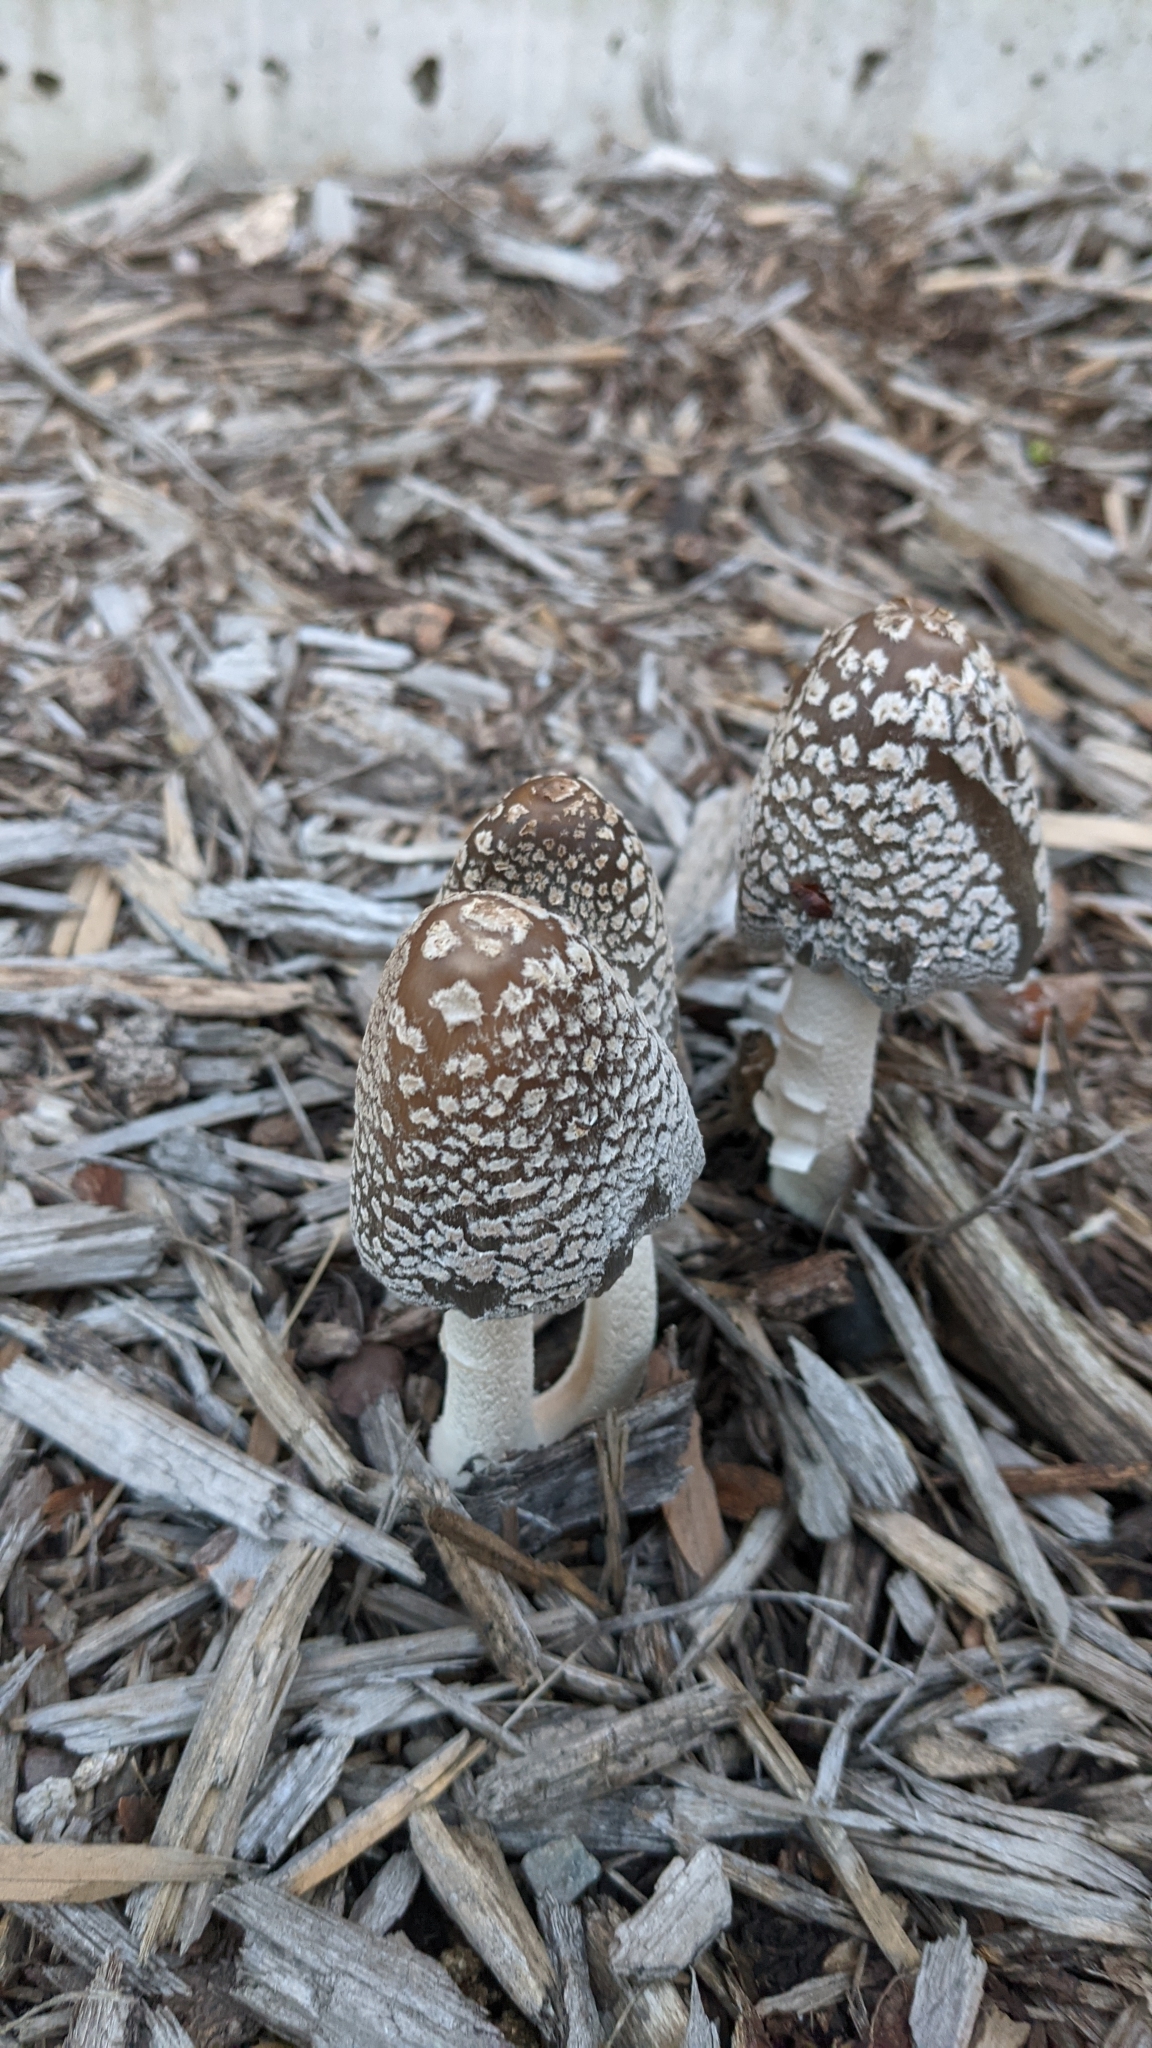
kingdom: Fungi
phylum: Basidiomycota
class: Agaricomycetes
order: Agaricales
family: Psathyrellaceae
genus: Coprinopsis
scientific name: Coprinopsis picacea
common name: Magpie inkcap
